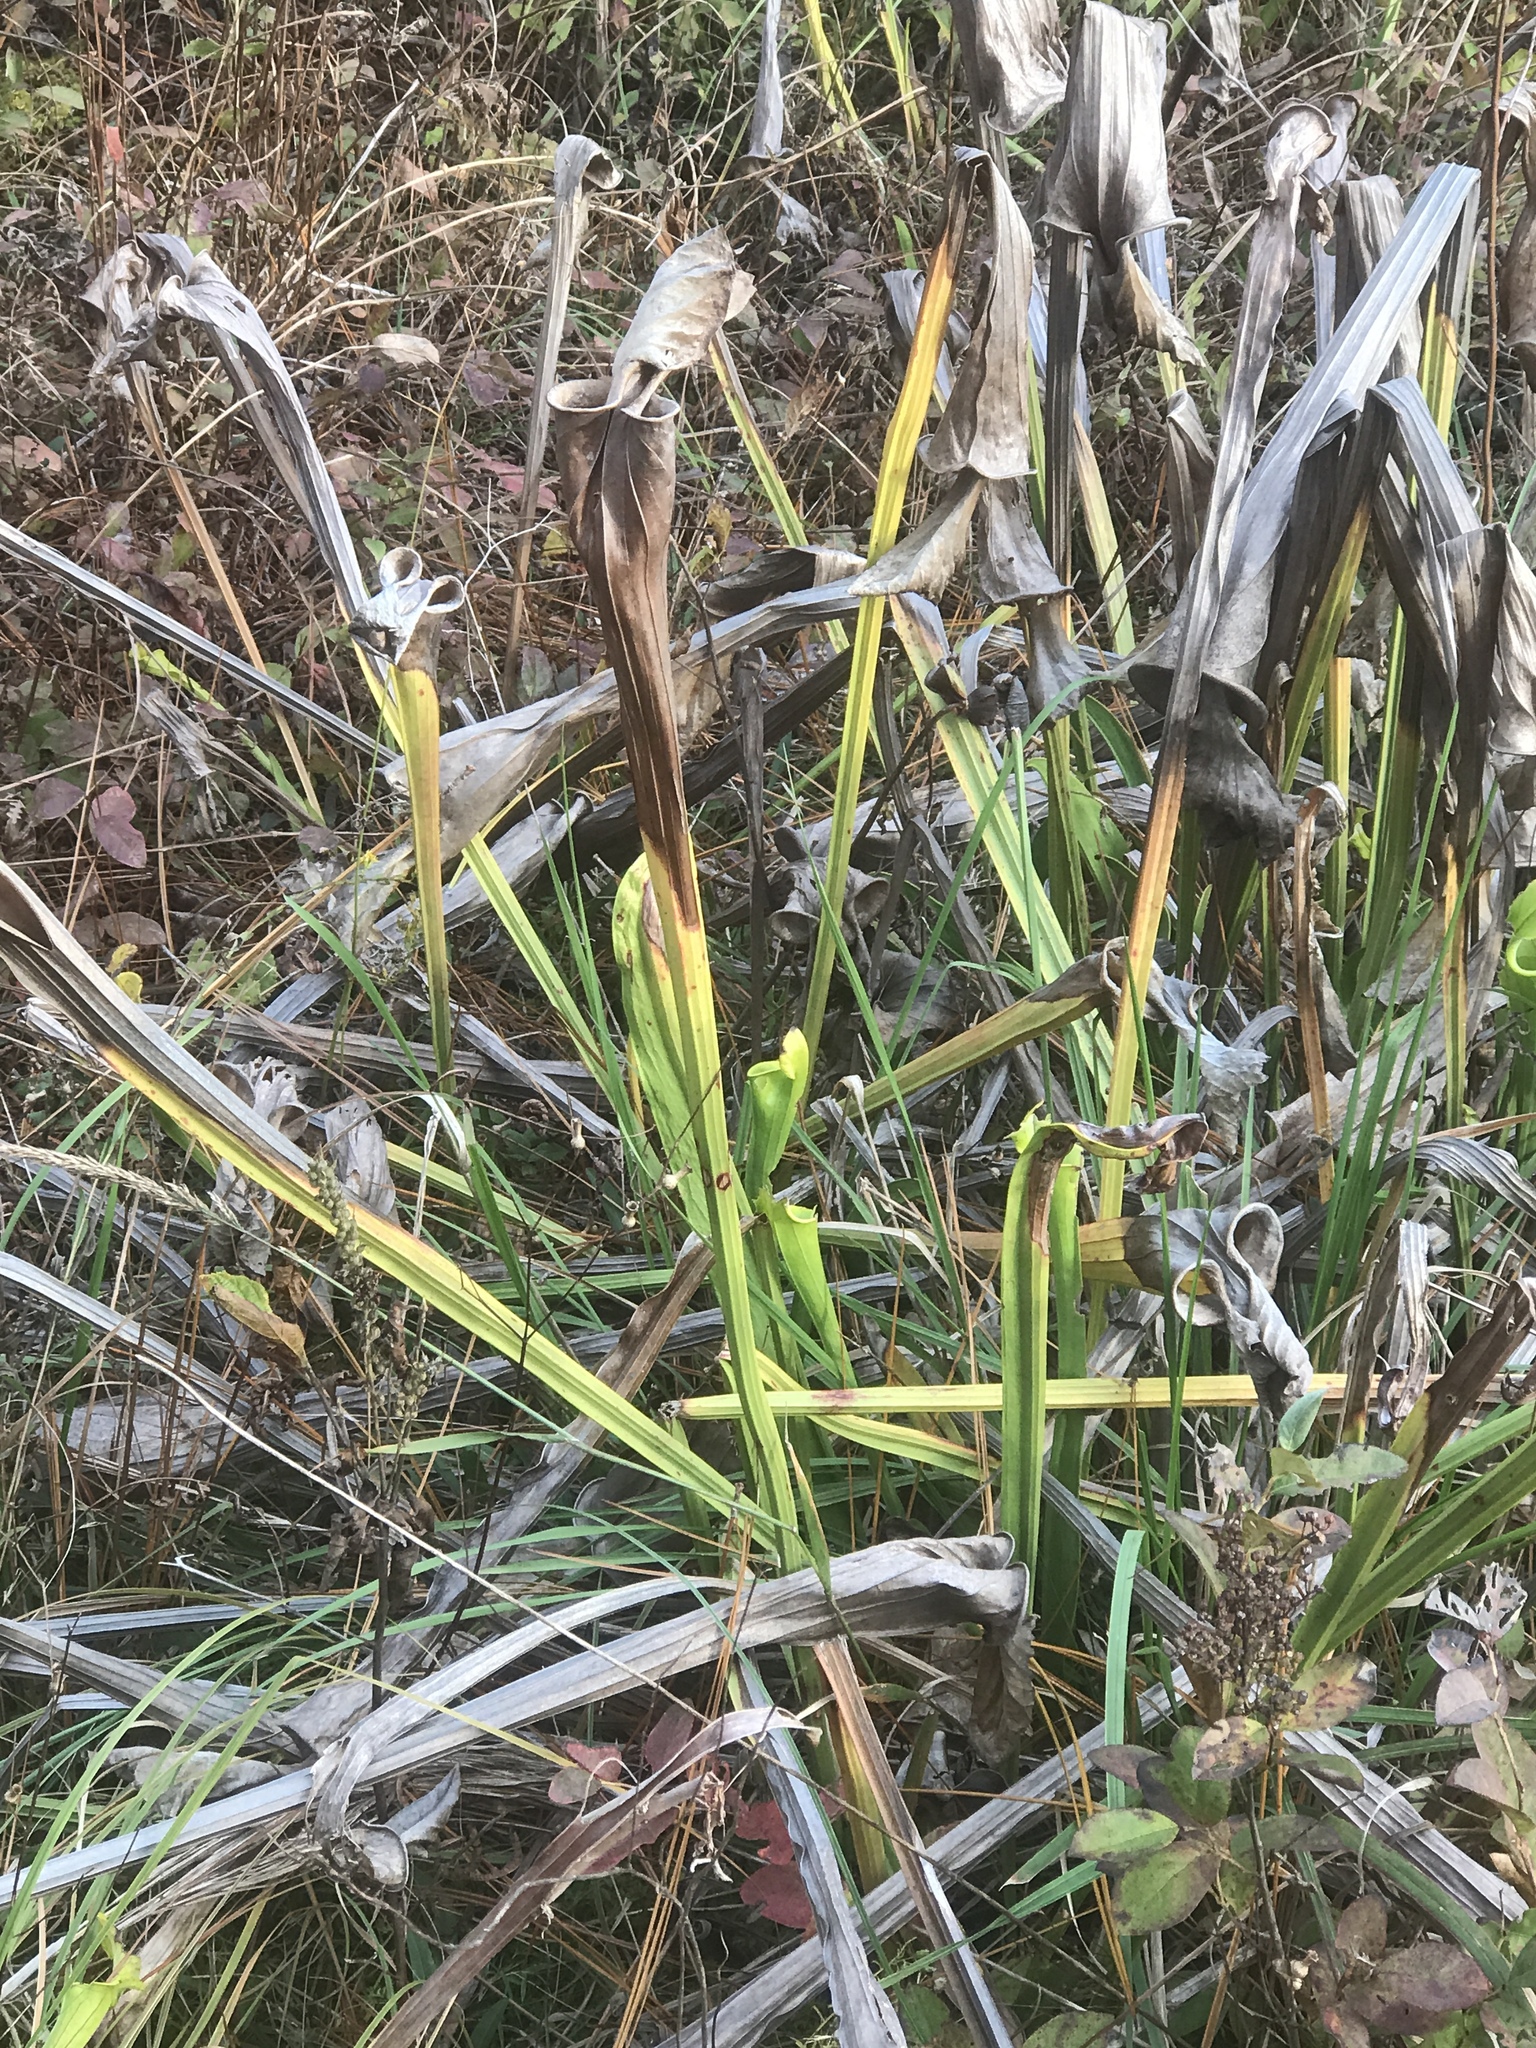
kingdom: Plantae
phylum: Tracheophyta
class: Magnoliopsida
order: Ericales
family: Sarraceniaceae
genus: Sarracenia
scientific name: Sarracenia flava
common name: Trumpets
